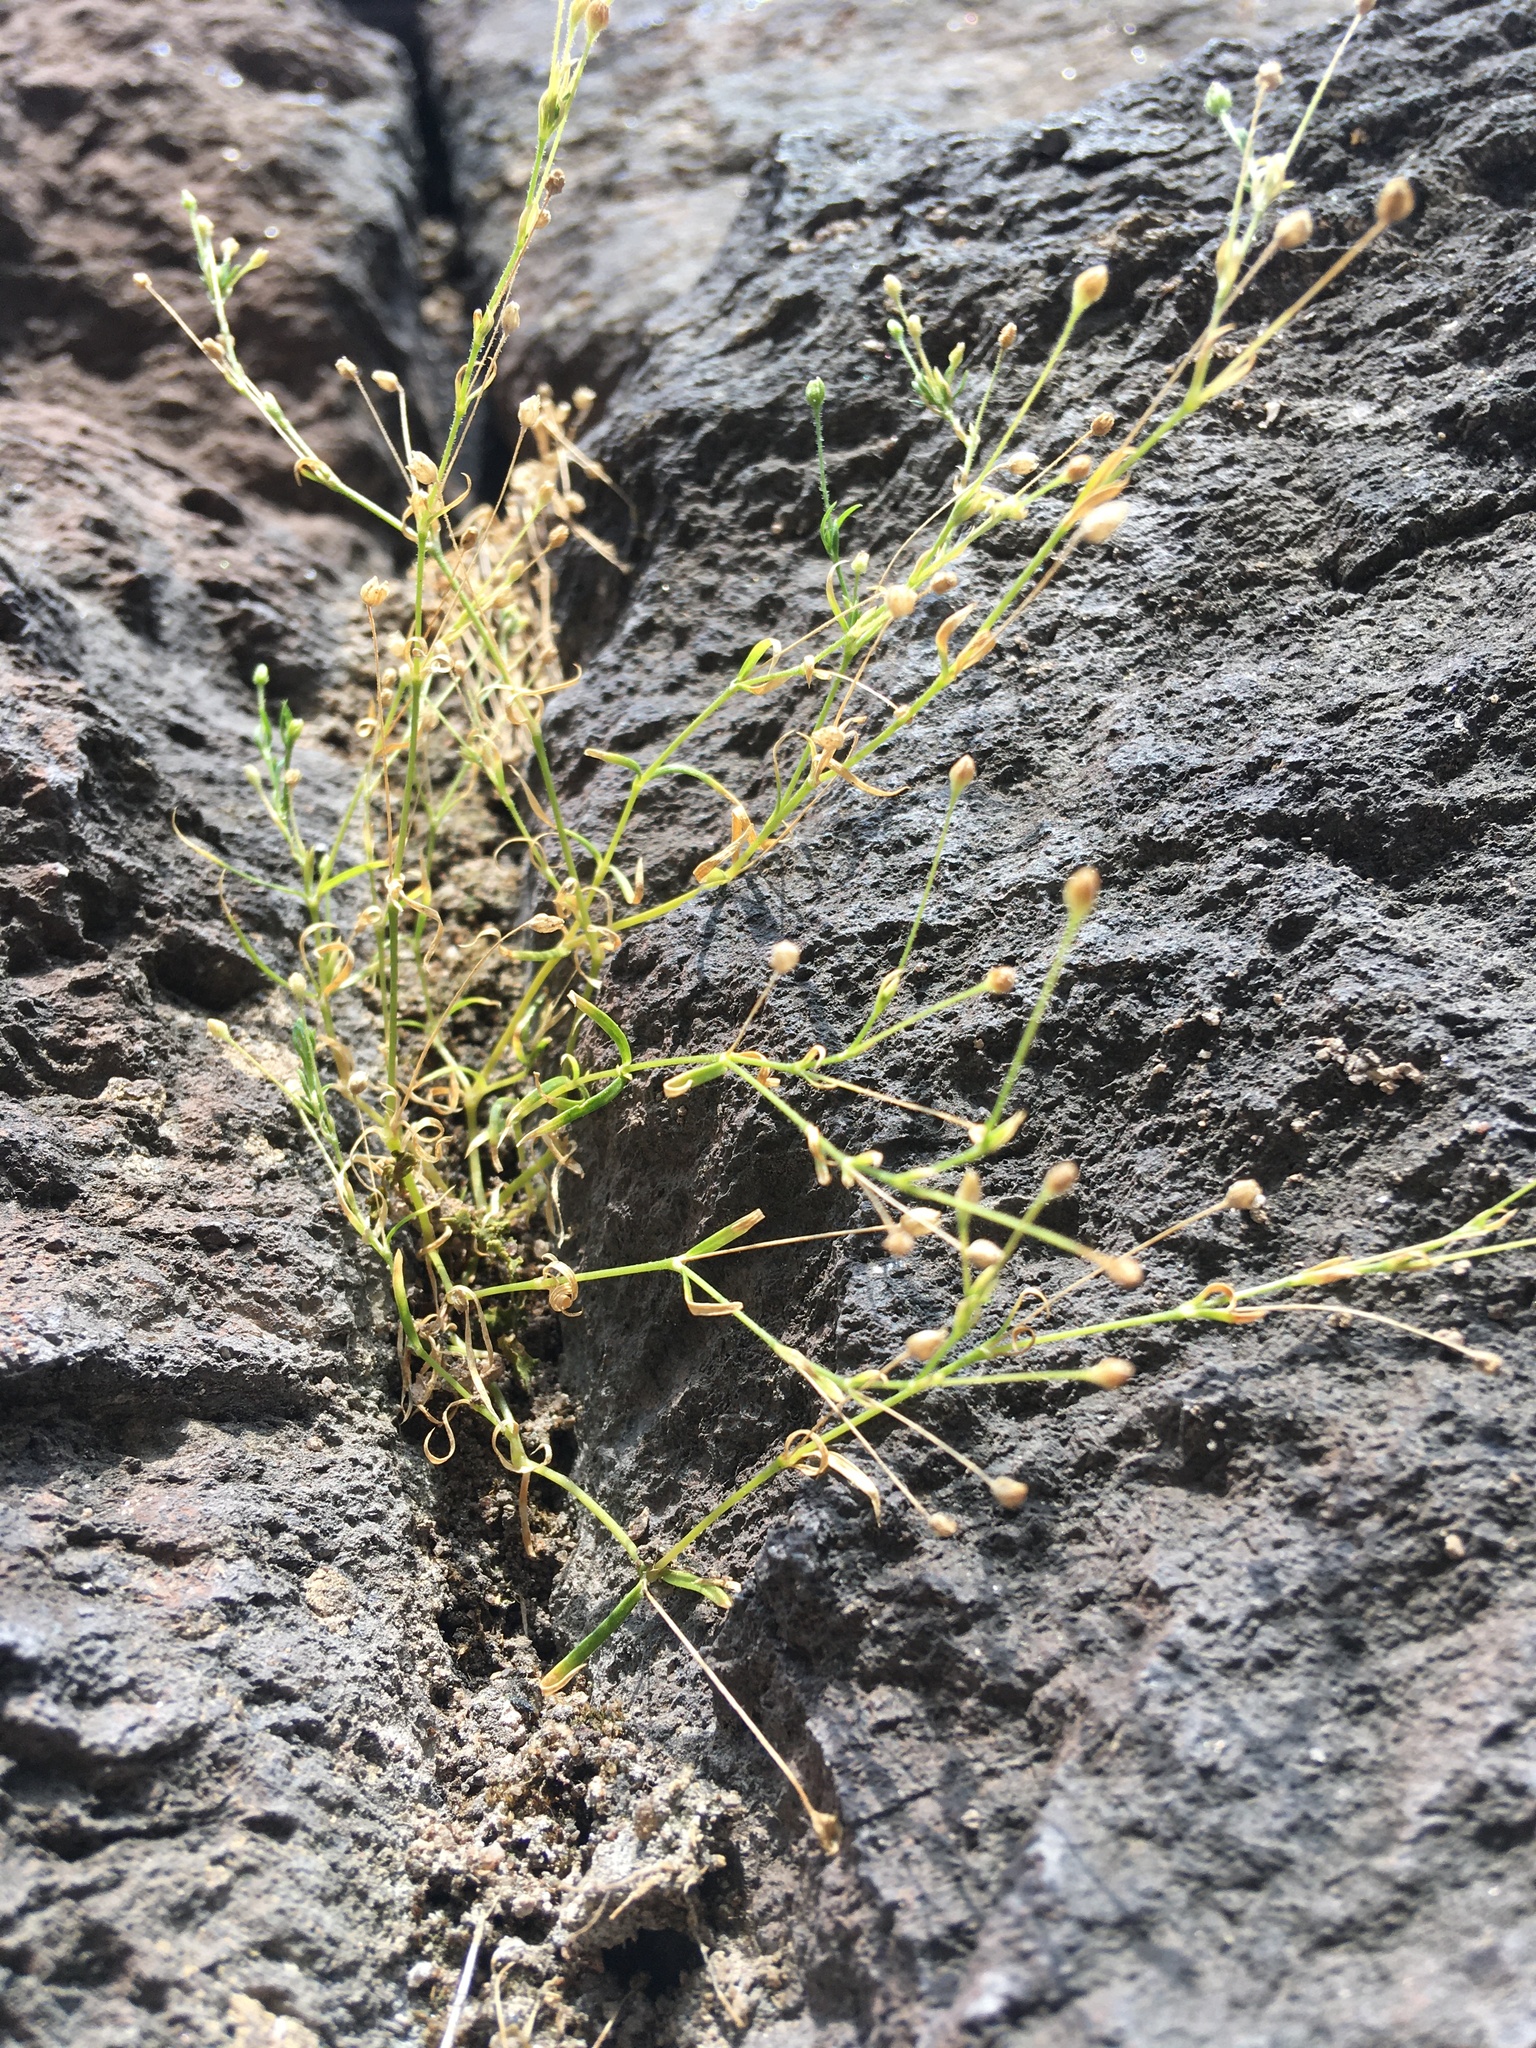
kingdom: Plantae
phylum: Tracheophyta
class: Magnoliopsida
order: Caryophyllales
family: Caryophyllaceae
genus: Sagina
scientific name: Sagina japonica
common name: Japanese pearlwort
